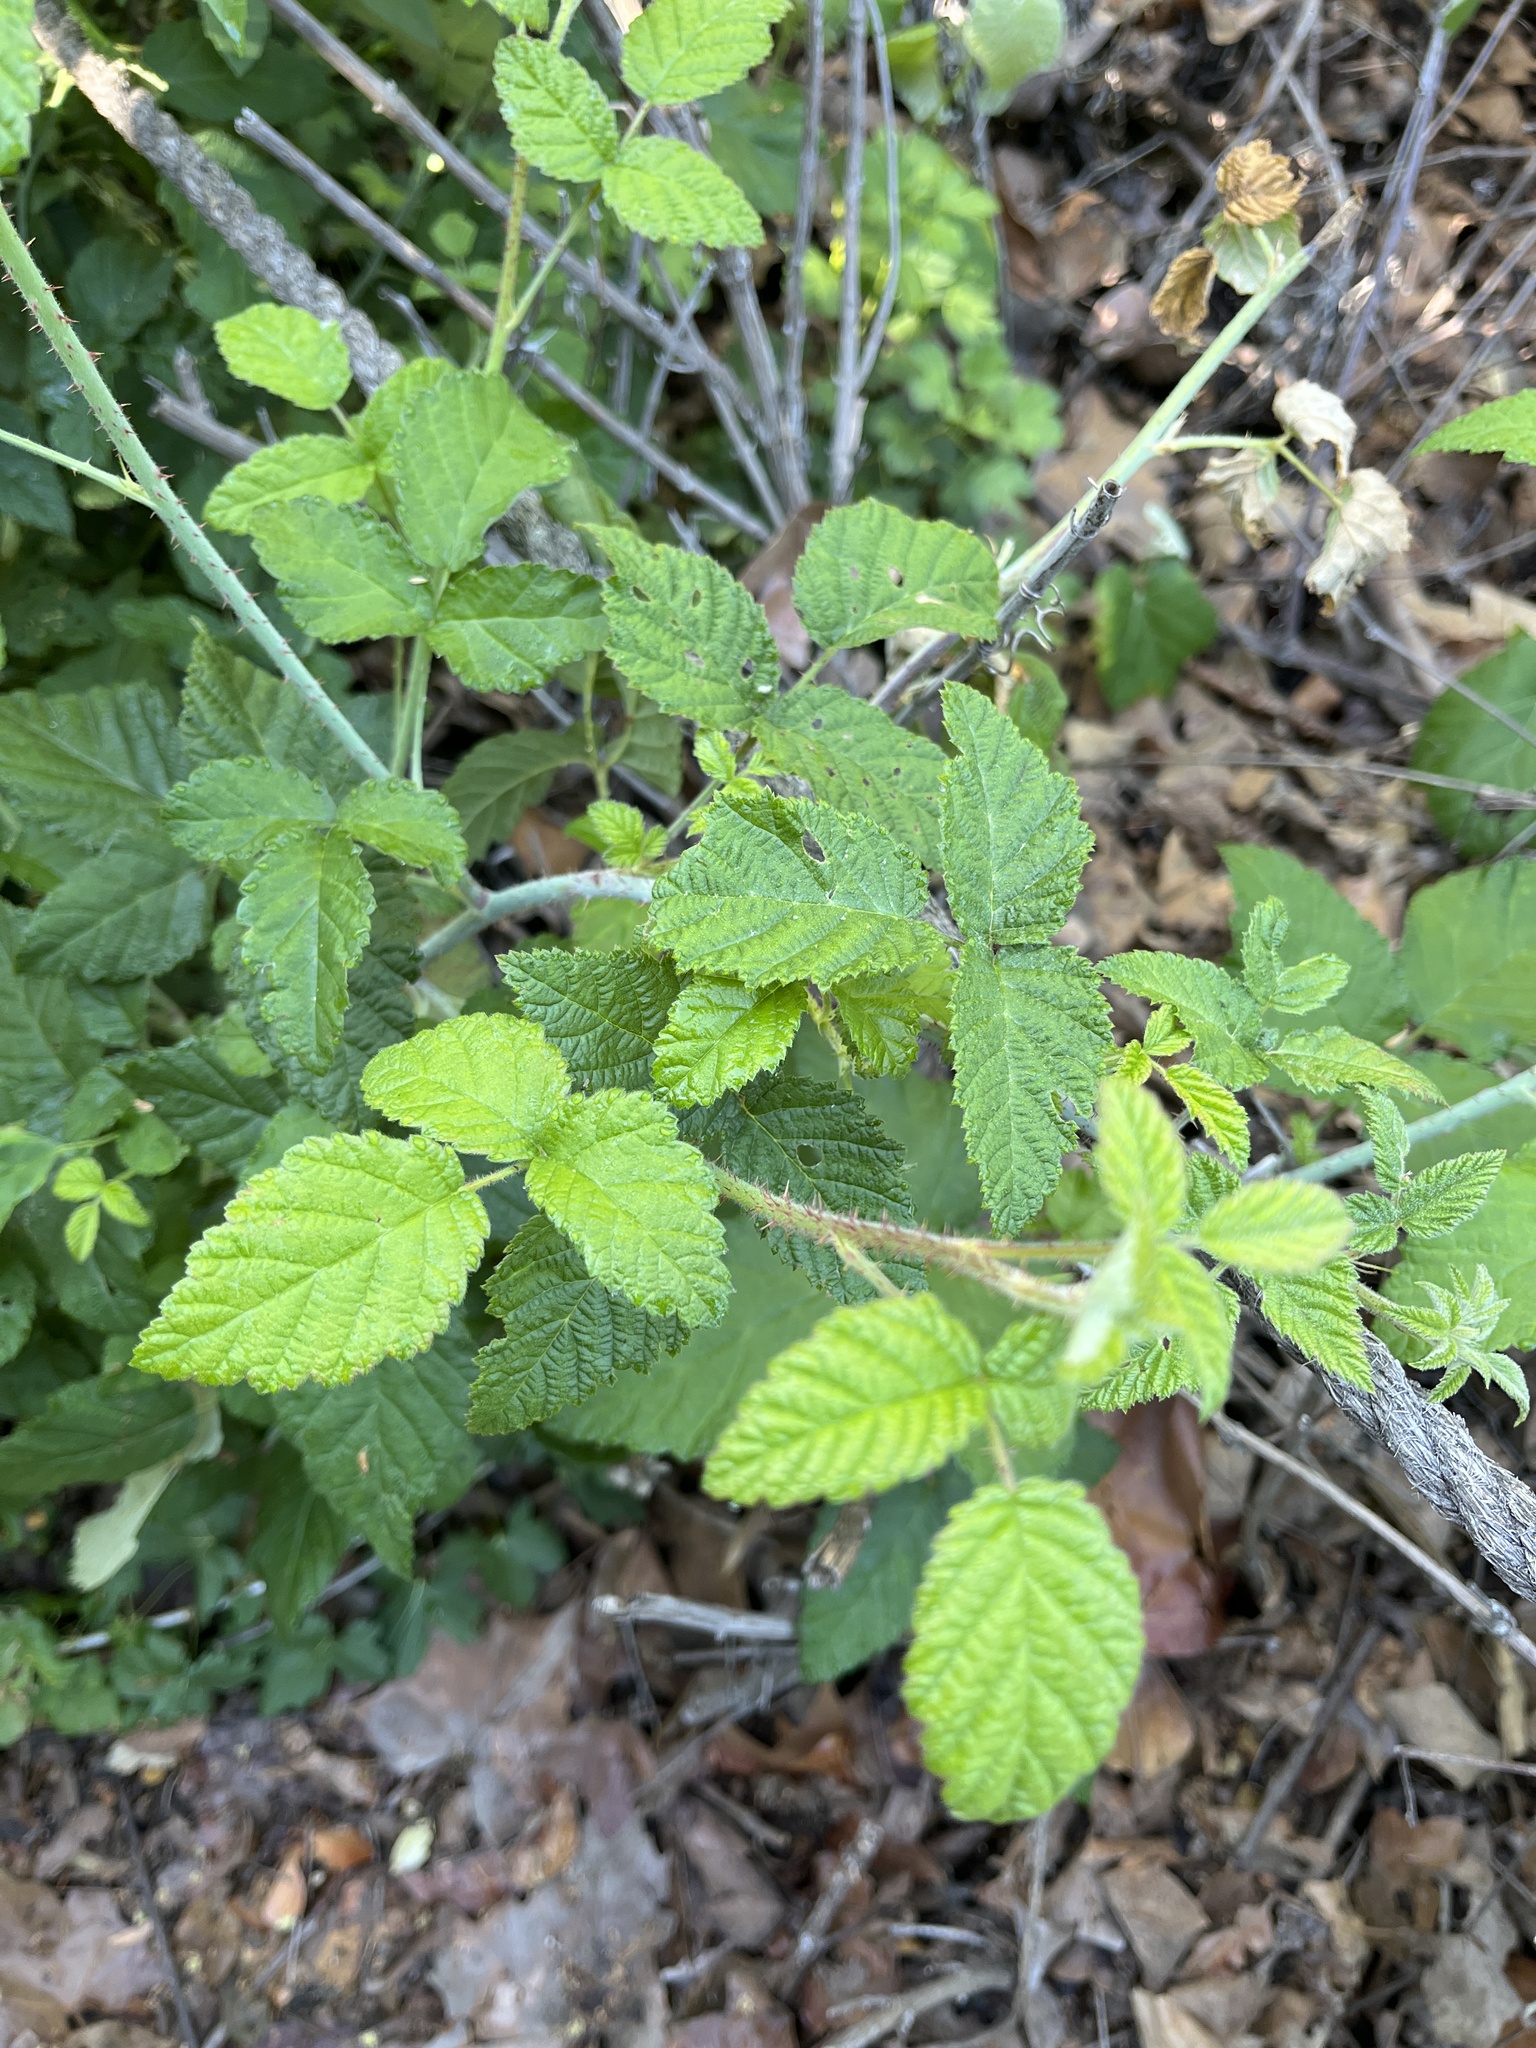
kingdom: Plantae
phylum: Tracheophyta
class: Magnoliopsida
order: Rosales
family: Rosaceae
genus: Rubus
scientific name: Rubus ursinus
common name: Pacific blackberry
